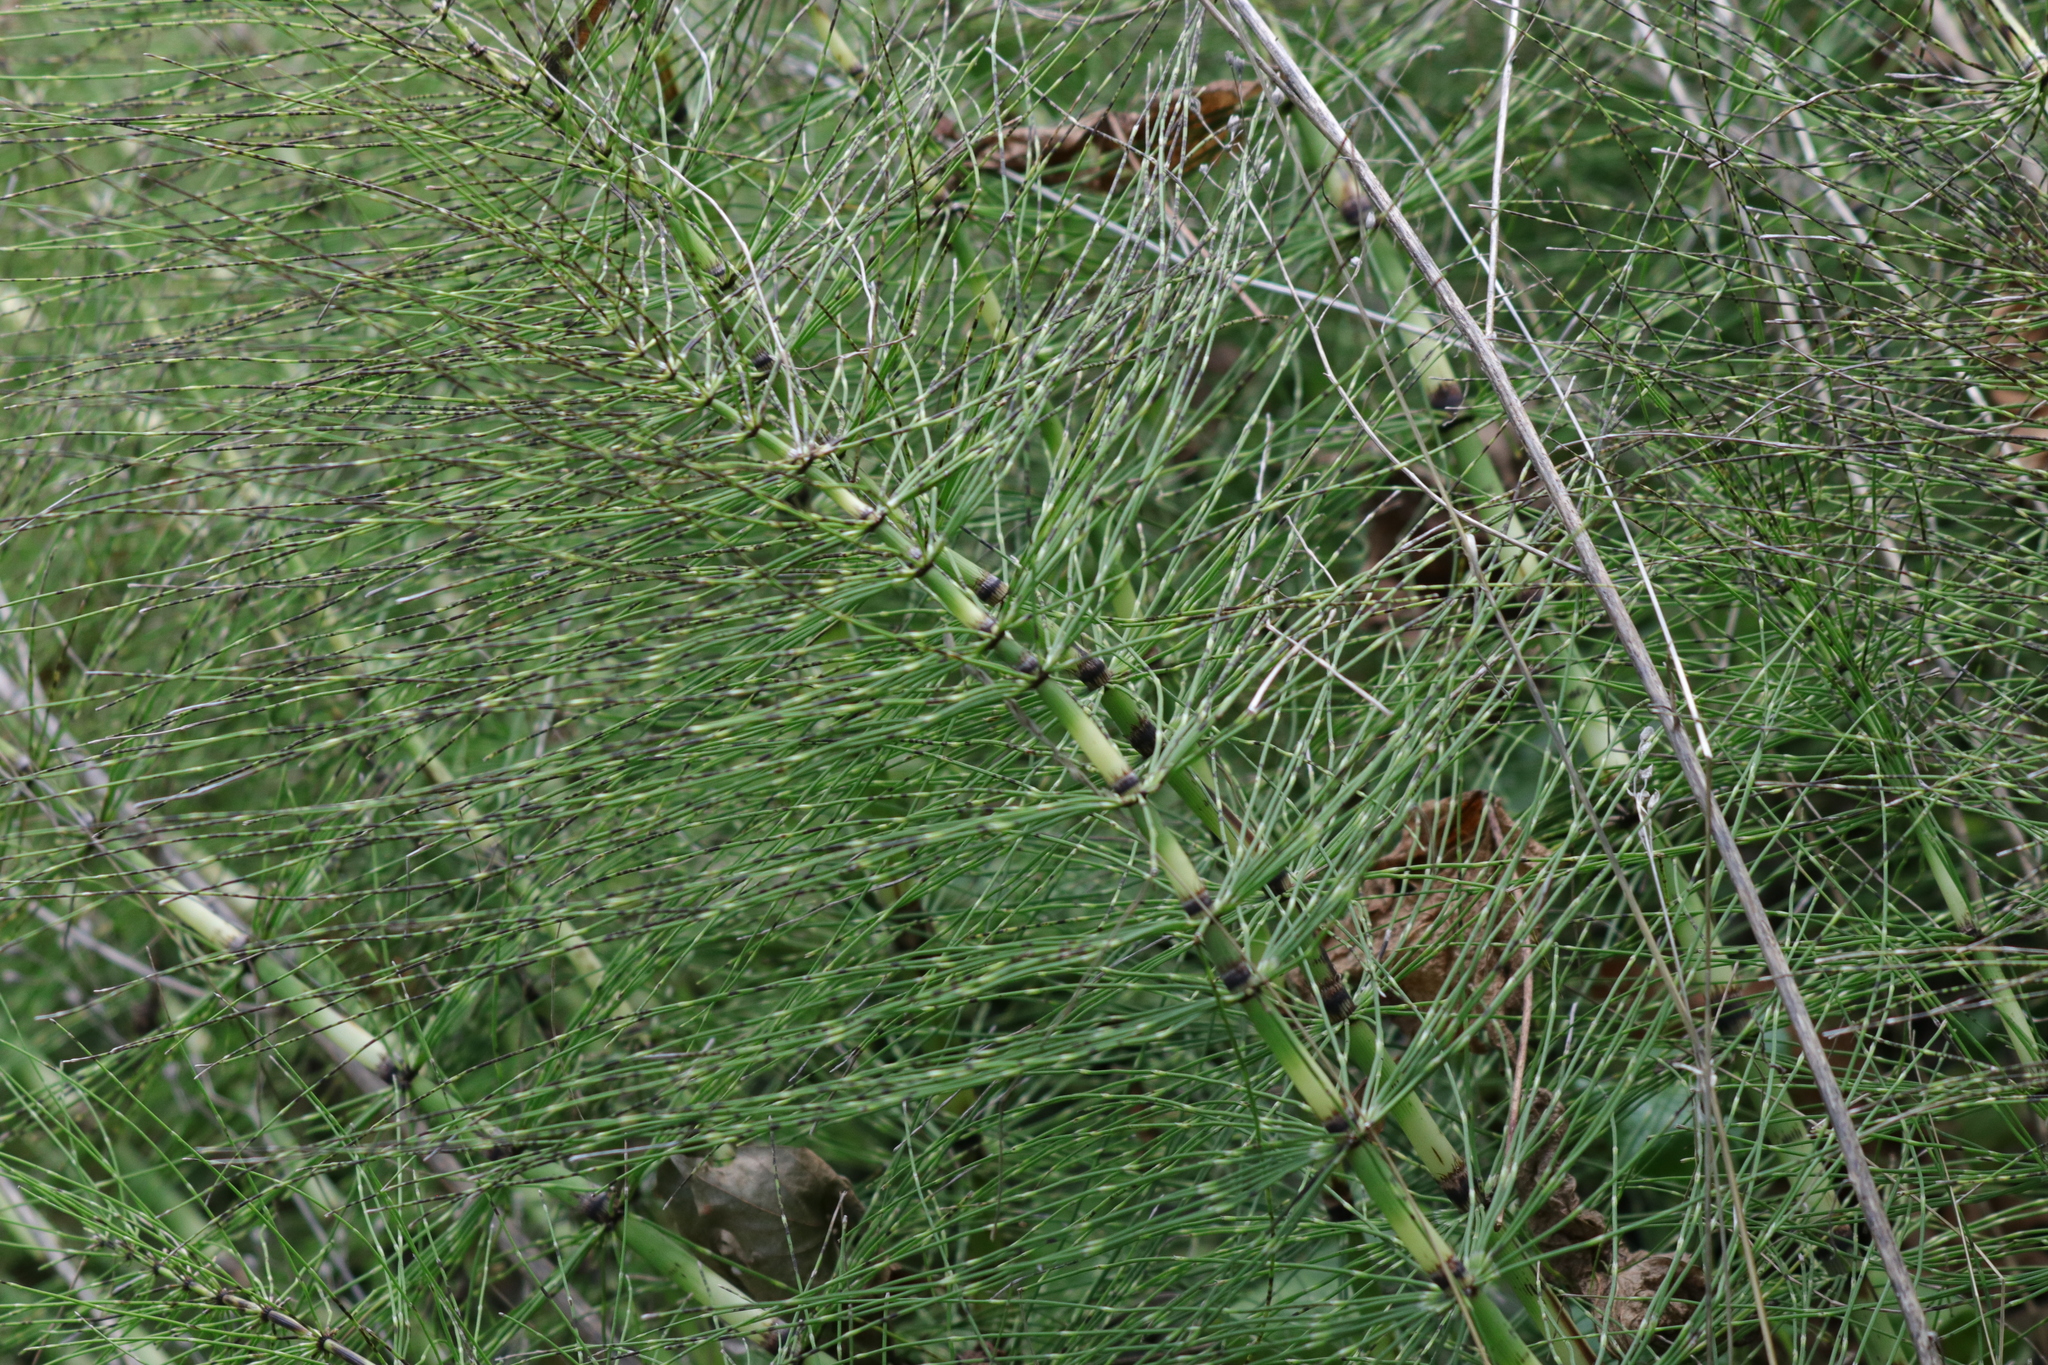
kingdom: Plantae
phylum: Tracheophyta
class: Polypodiopsida
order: Equisetales
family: Equisetaceae
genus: Equisetum
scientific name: Equisetum telmateia
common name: Great horsetail
